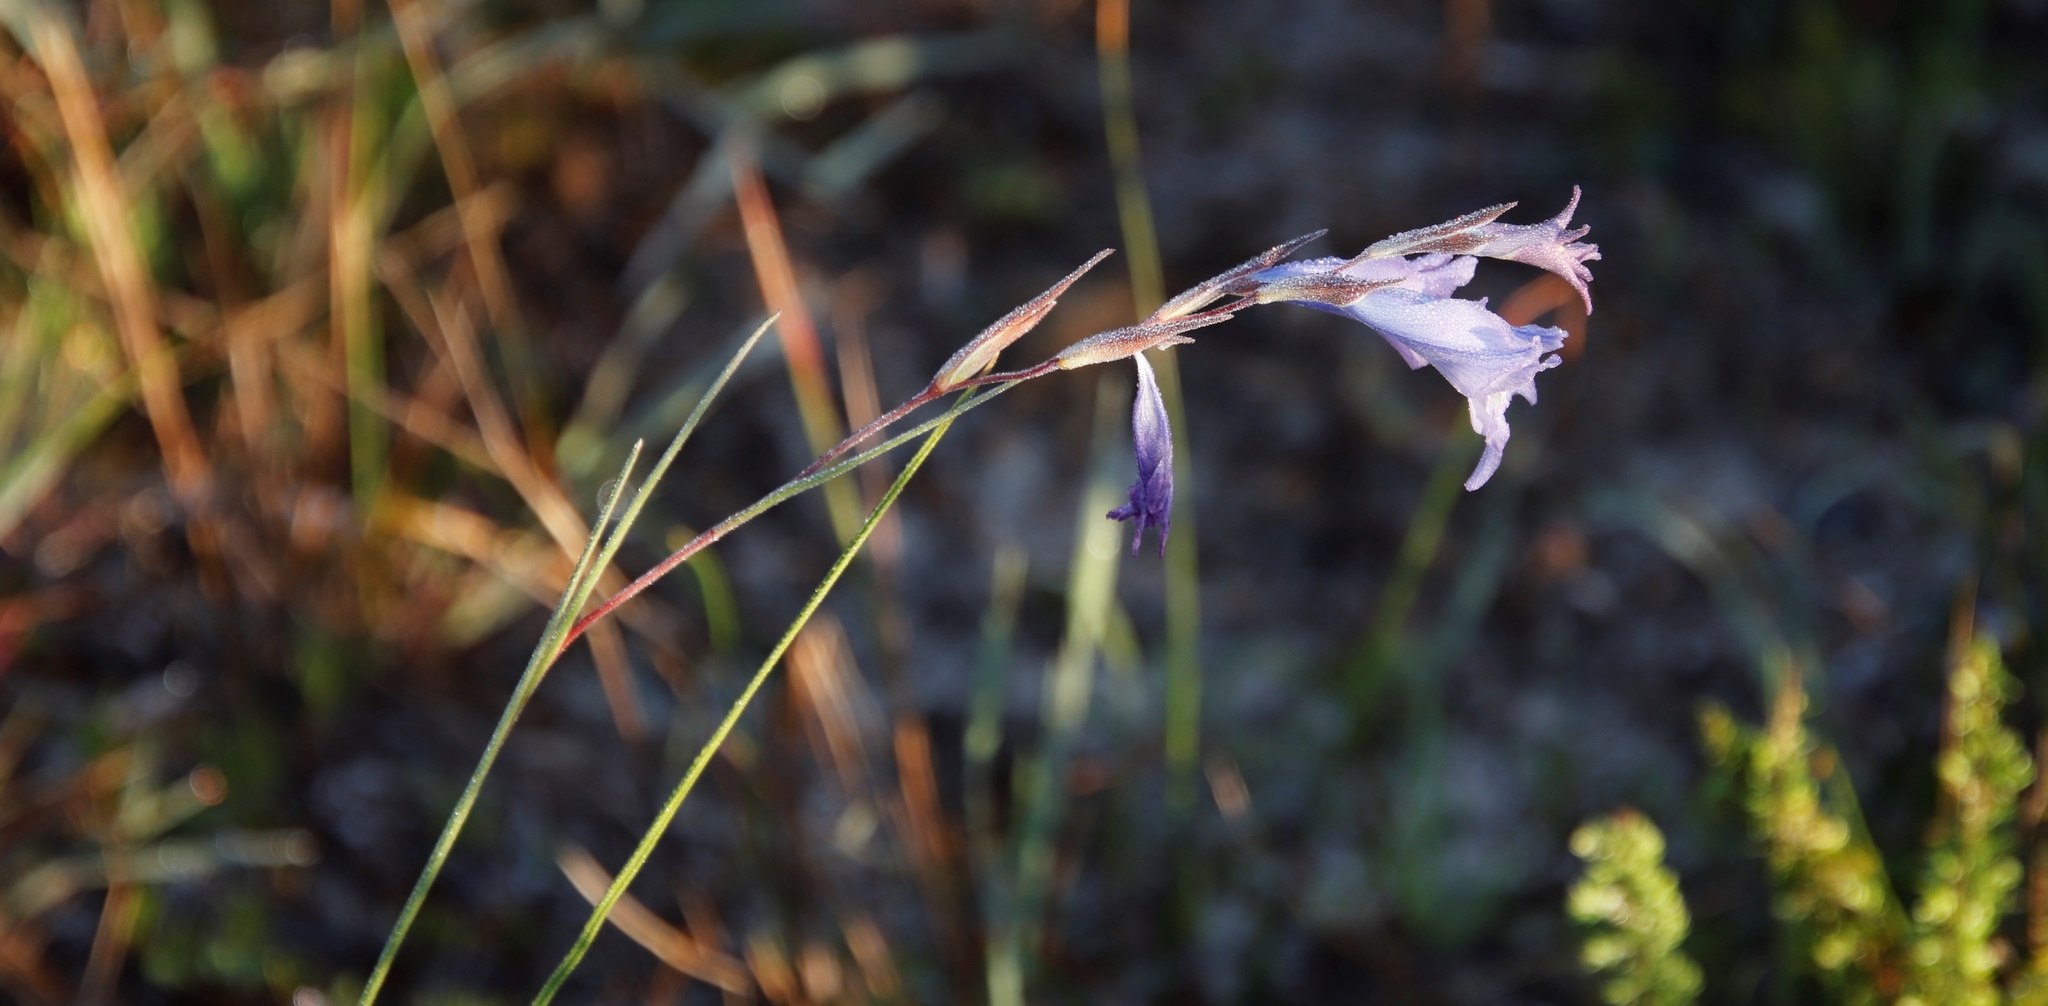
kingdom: Plantae
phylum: Tracheophyta
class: Liliopsida
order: Asparagales
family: Iridaceae
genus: Gladiolus
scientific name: Gladiolus gracilis
